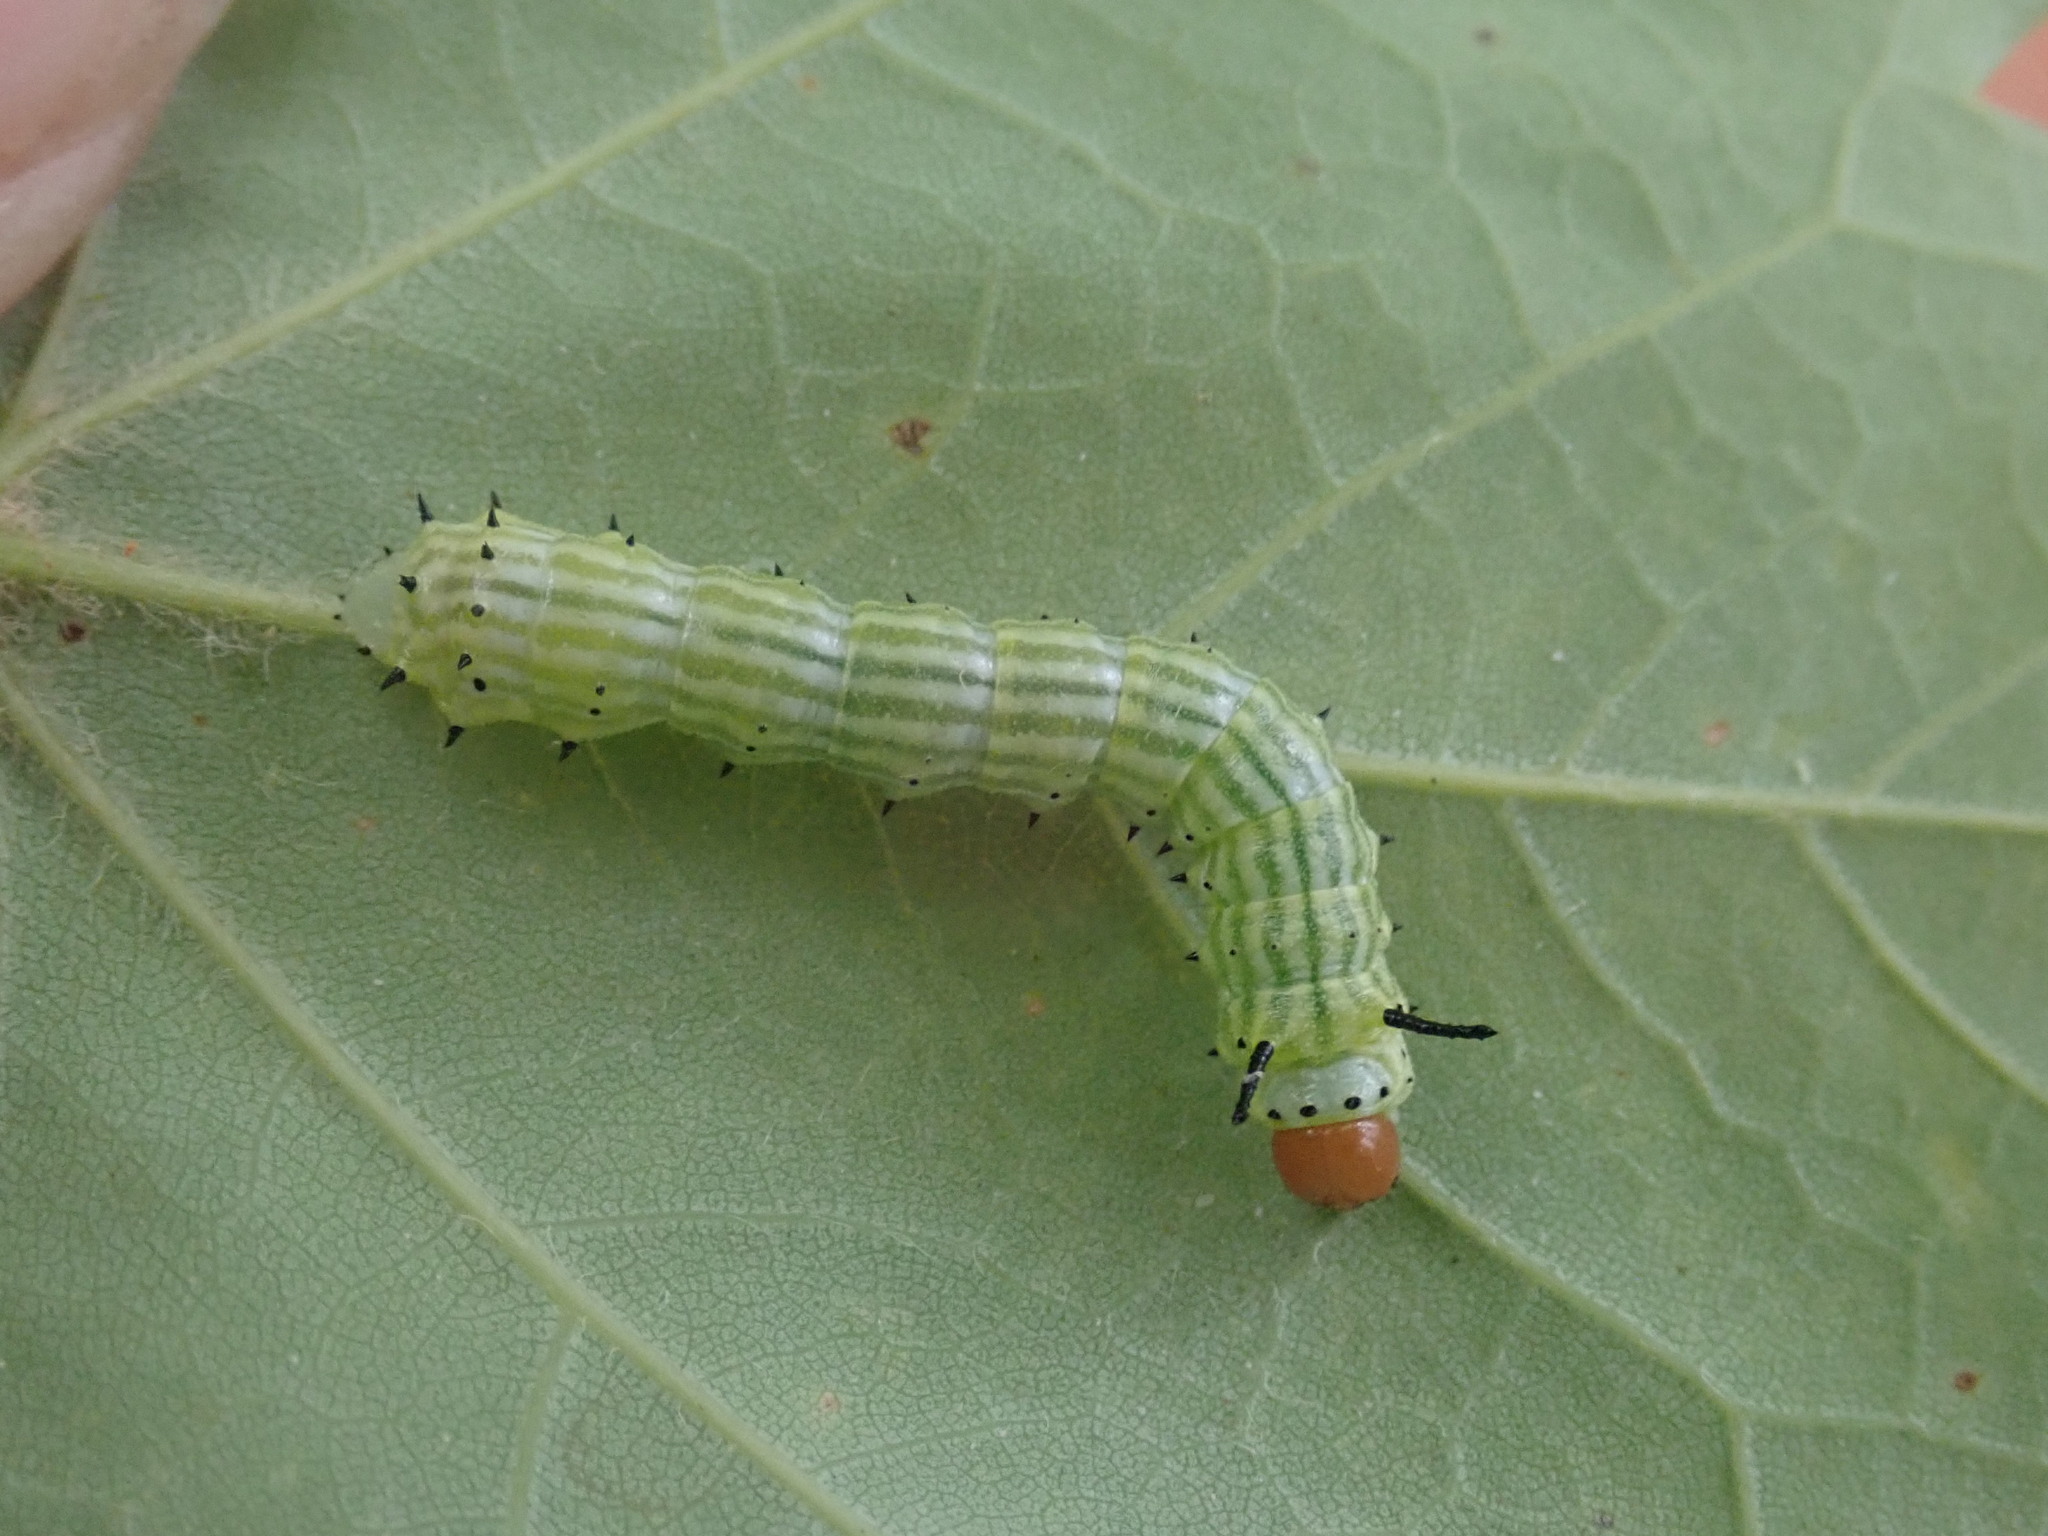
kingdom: Animalia
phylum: Arthropoda
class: Insecta
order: Lepidoptera
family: Saturniidae
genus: Dryocampa
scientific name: Dryocampa rubicunda
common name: Rosy maple moth
